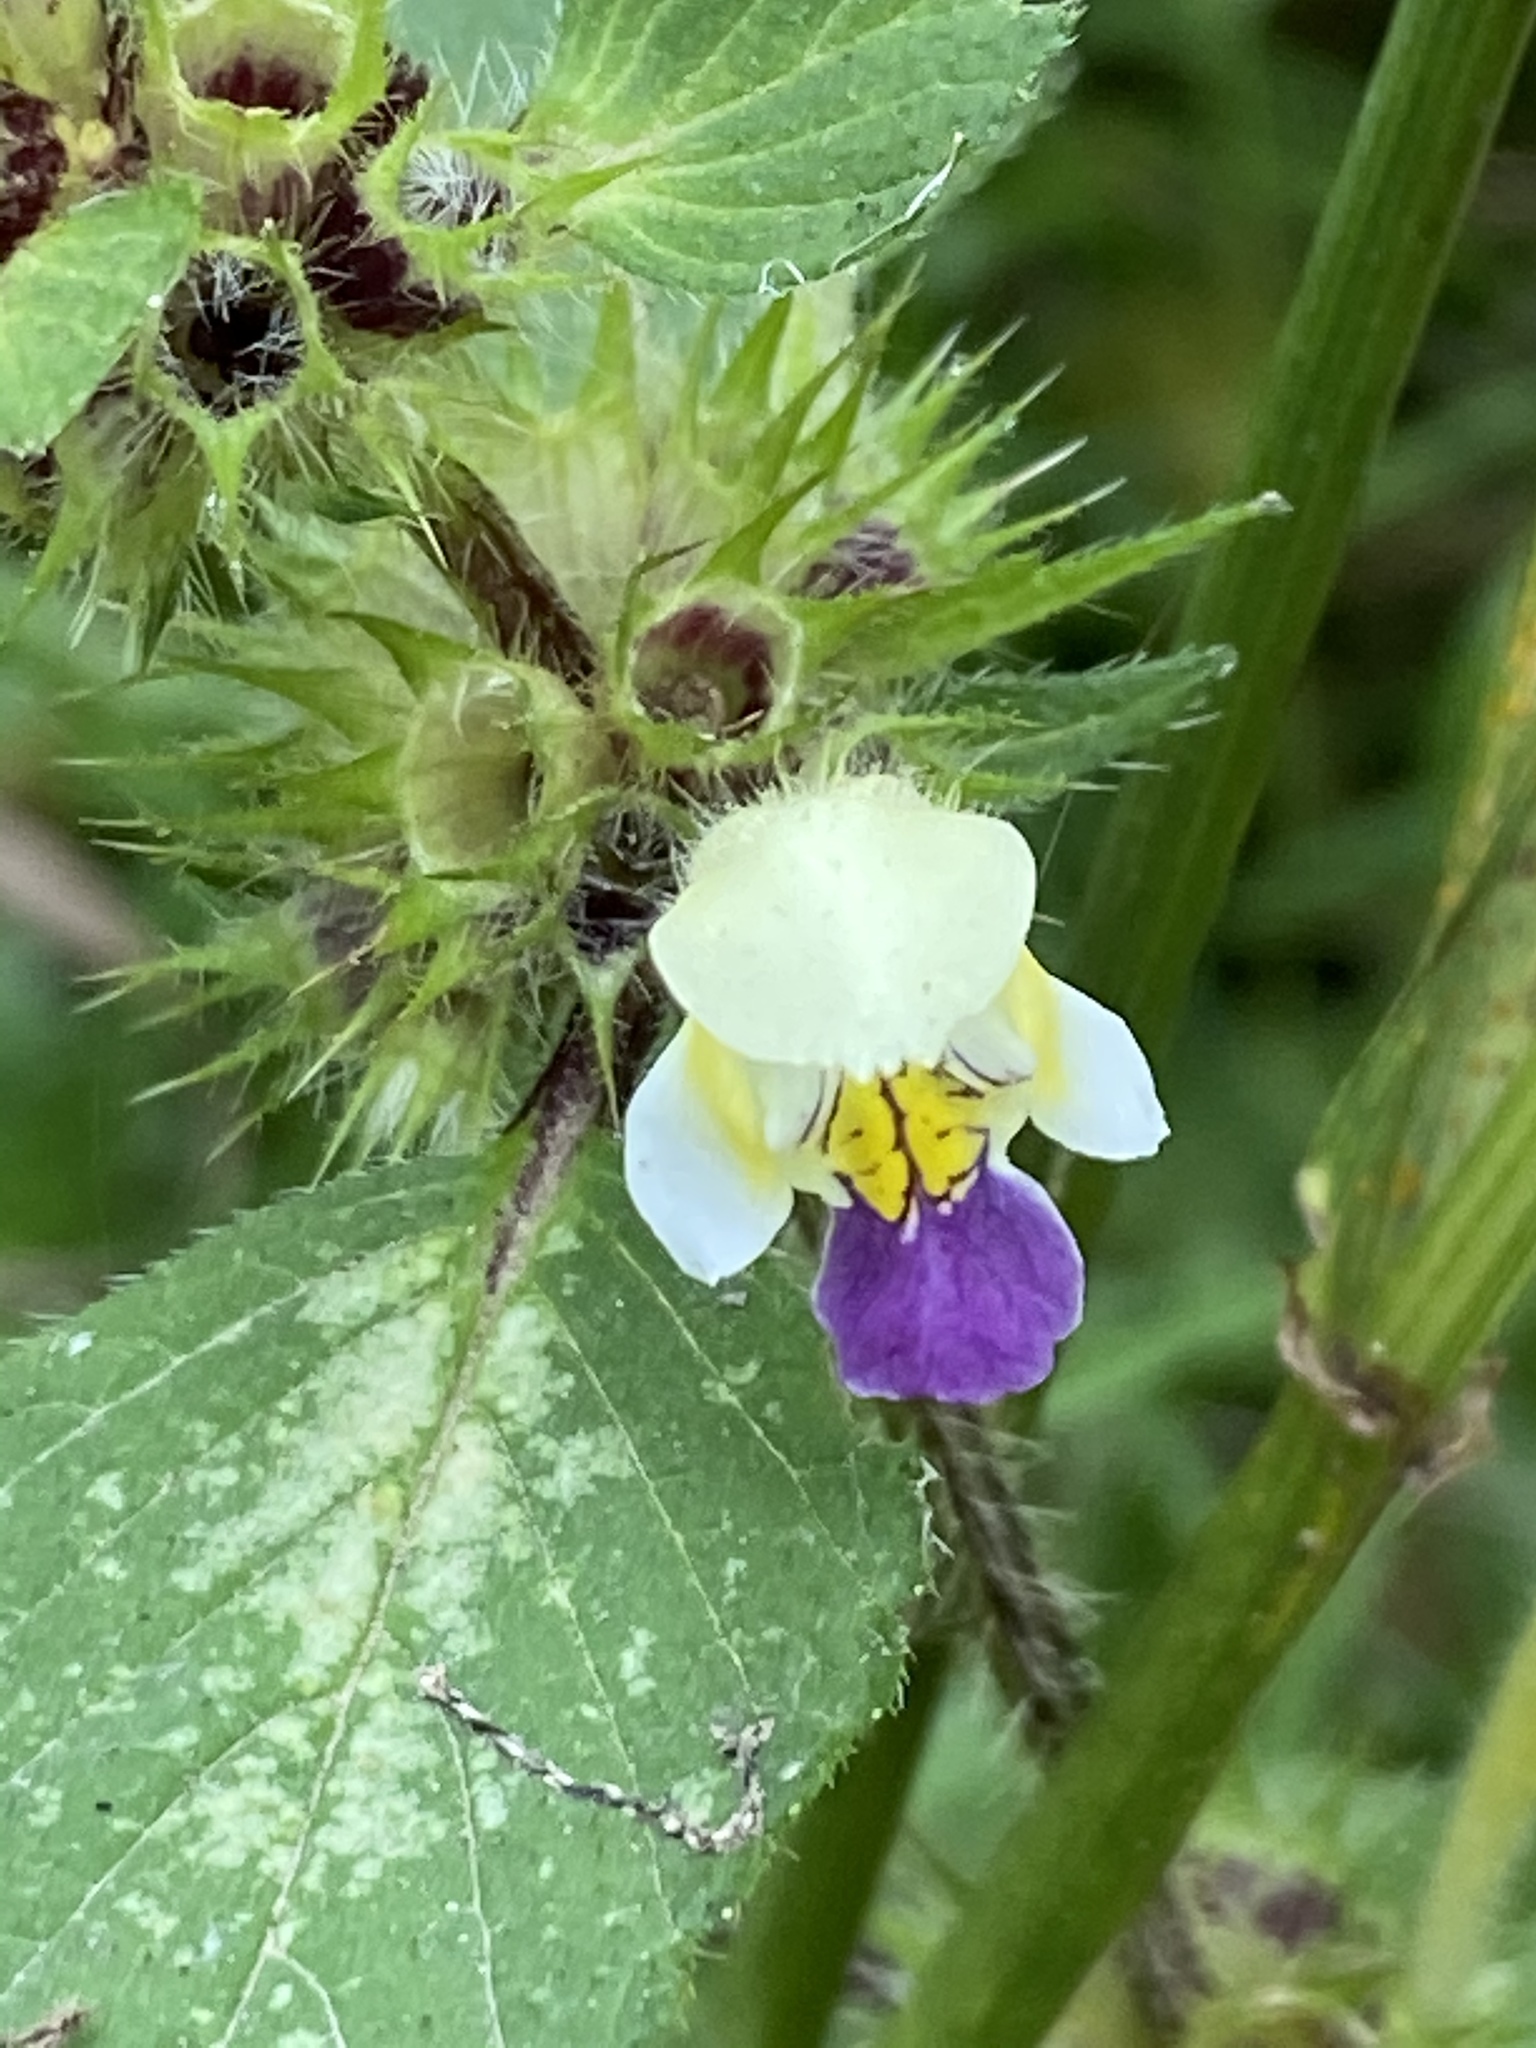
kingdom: Plantae
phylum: Tracheophyta
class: Magnoliopsida
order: Lamiales
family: Lamiaceae
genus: Galeopsis
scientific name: Galeopsis speciosa
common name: Large-flowered hemp-nettle
